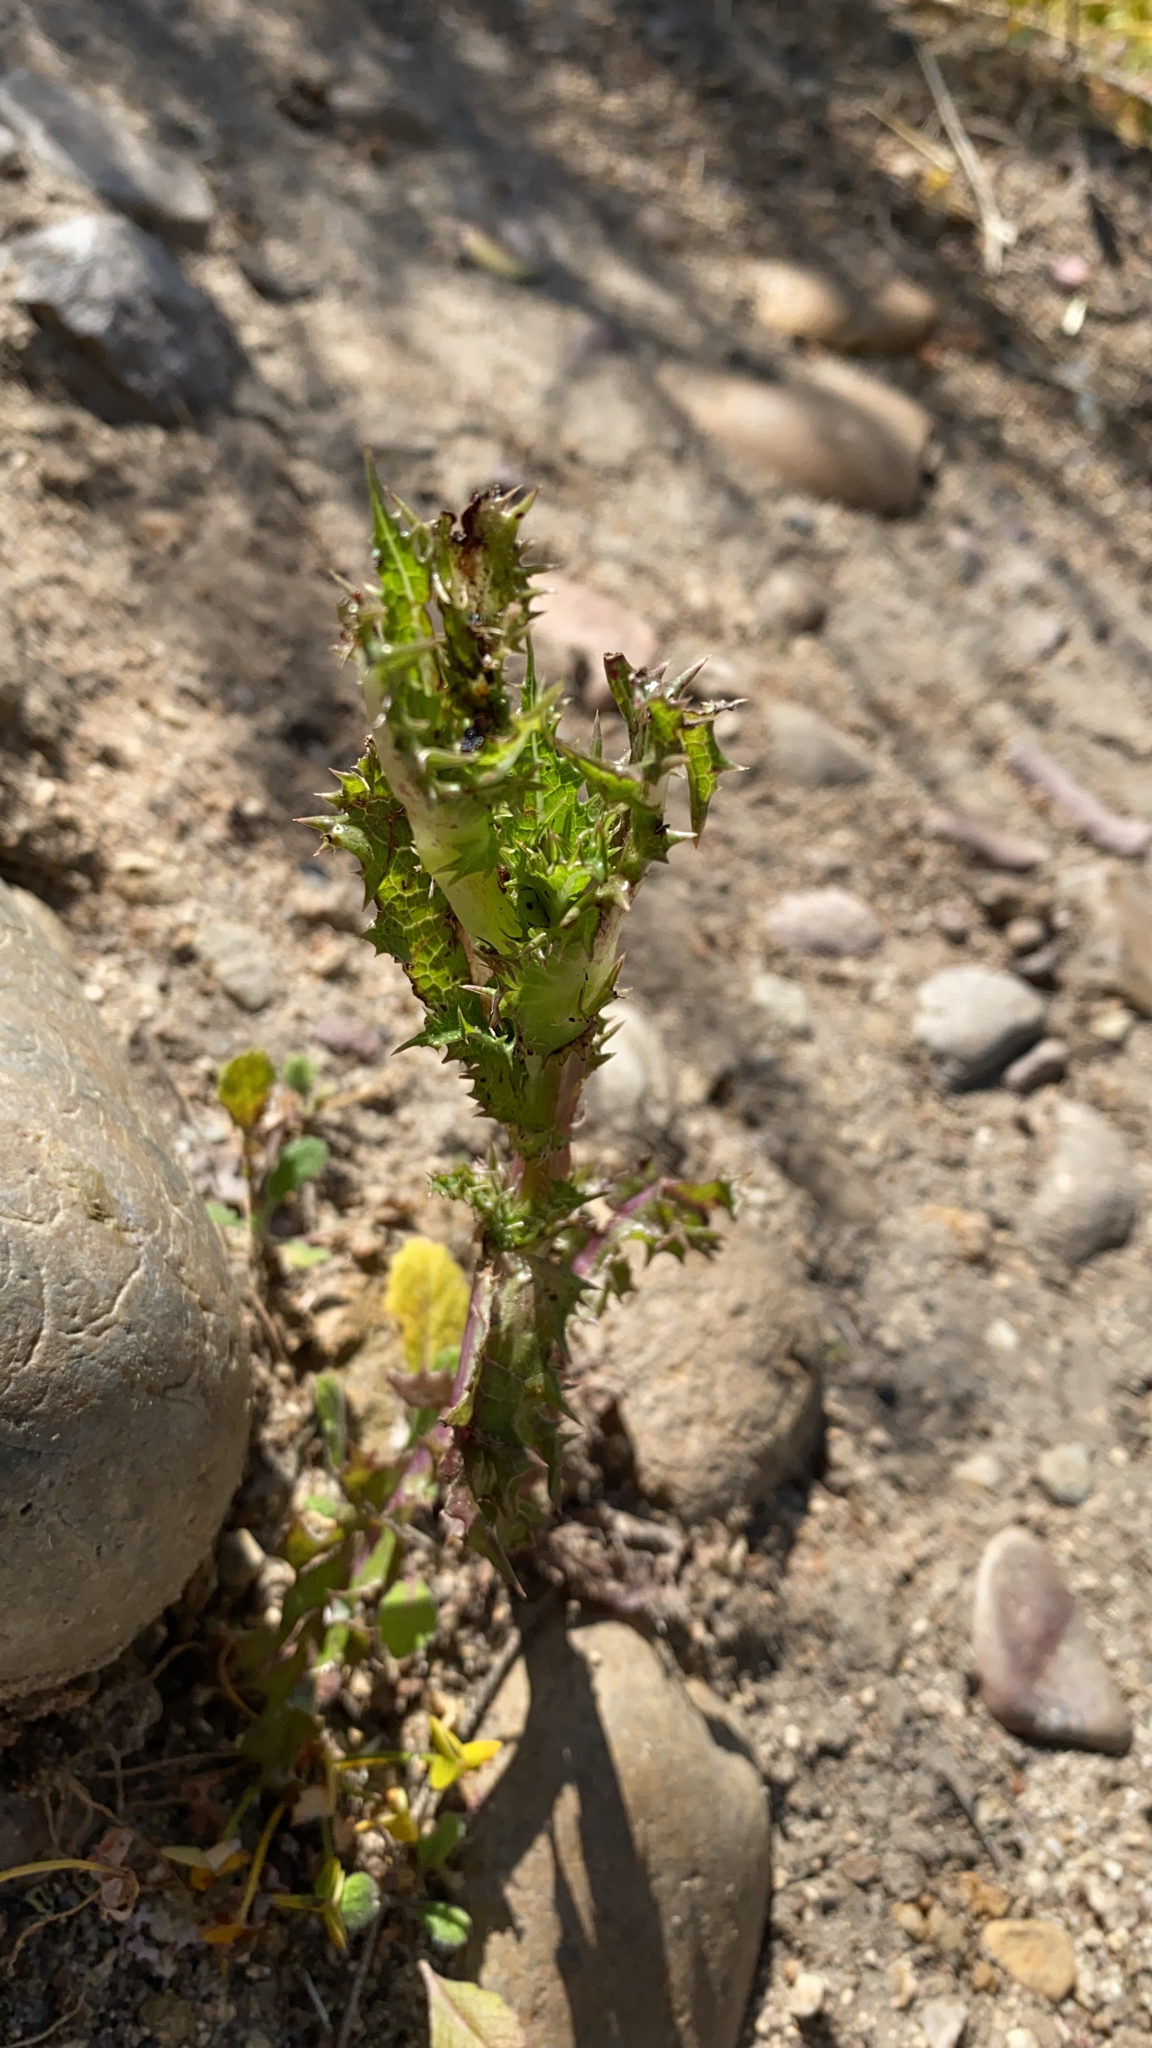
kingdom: Plantae
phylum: Tracheophyta
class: Magnoliopsida
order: Asterales
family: Asteraceae
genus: Sonchus
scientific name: Sonchus asper
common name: Prickly sow-thistle
